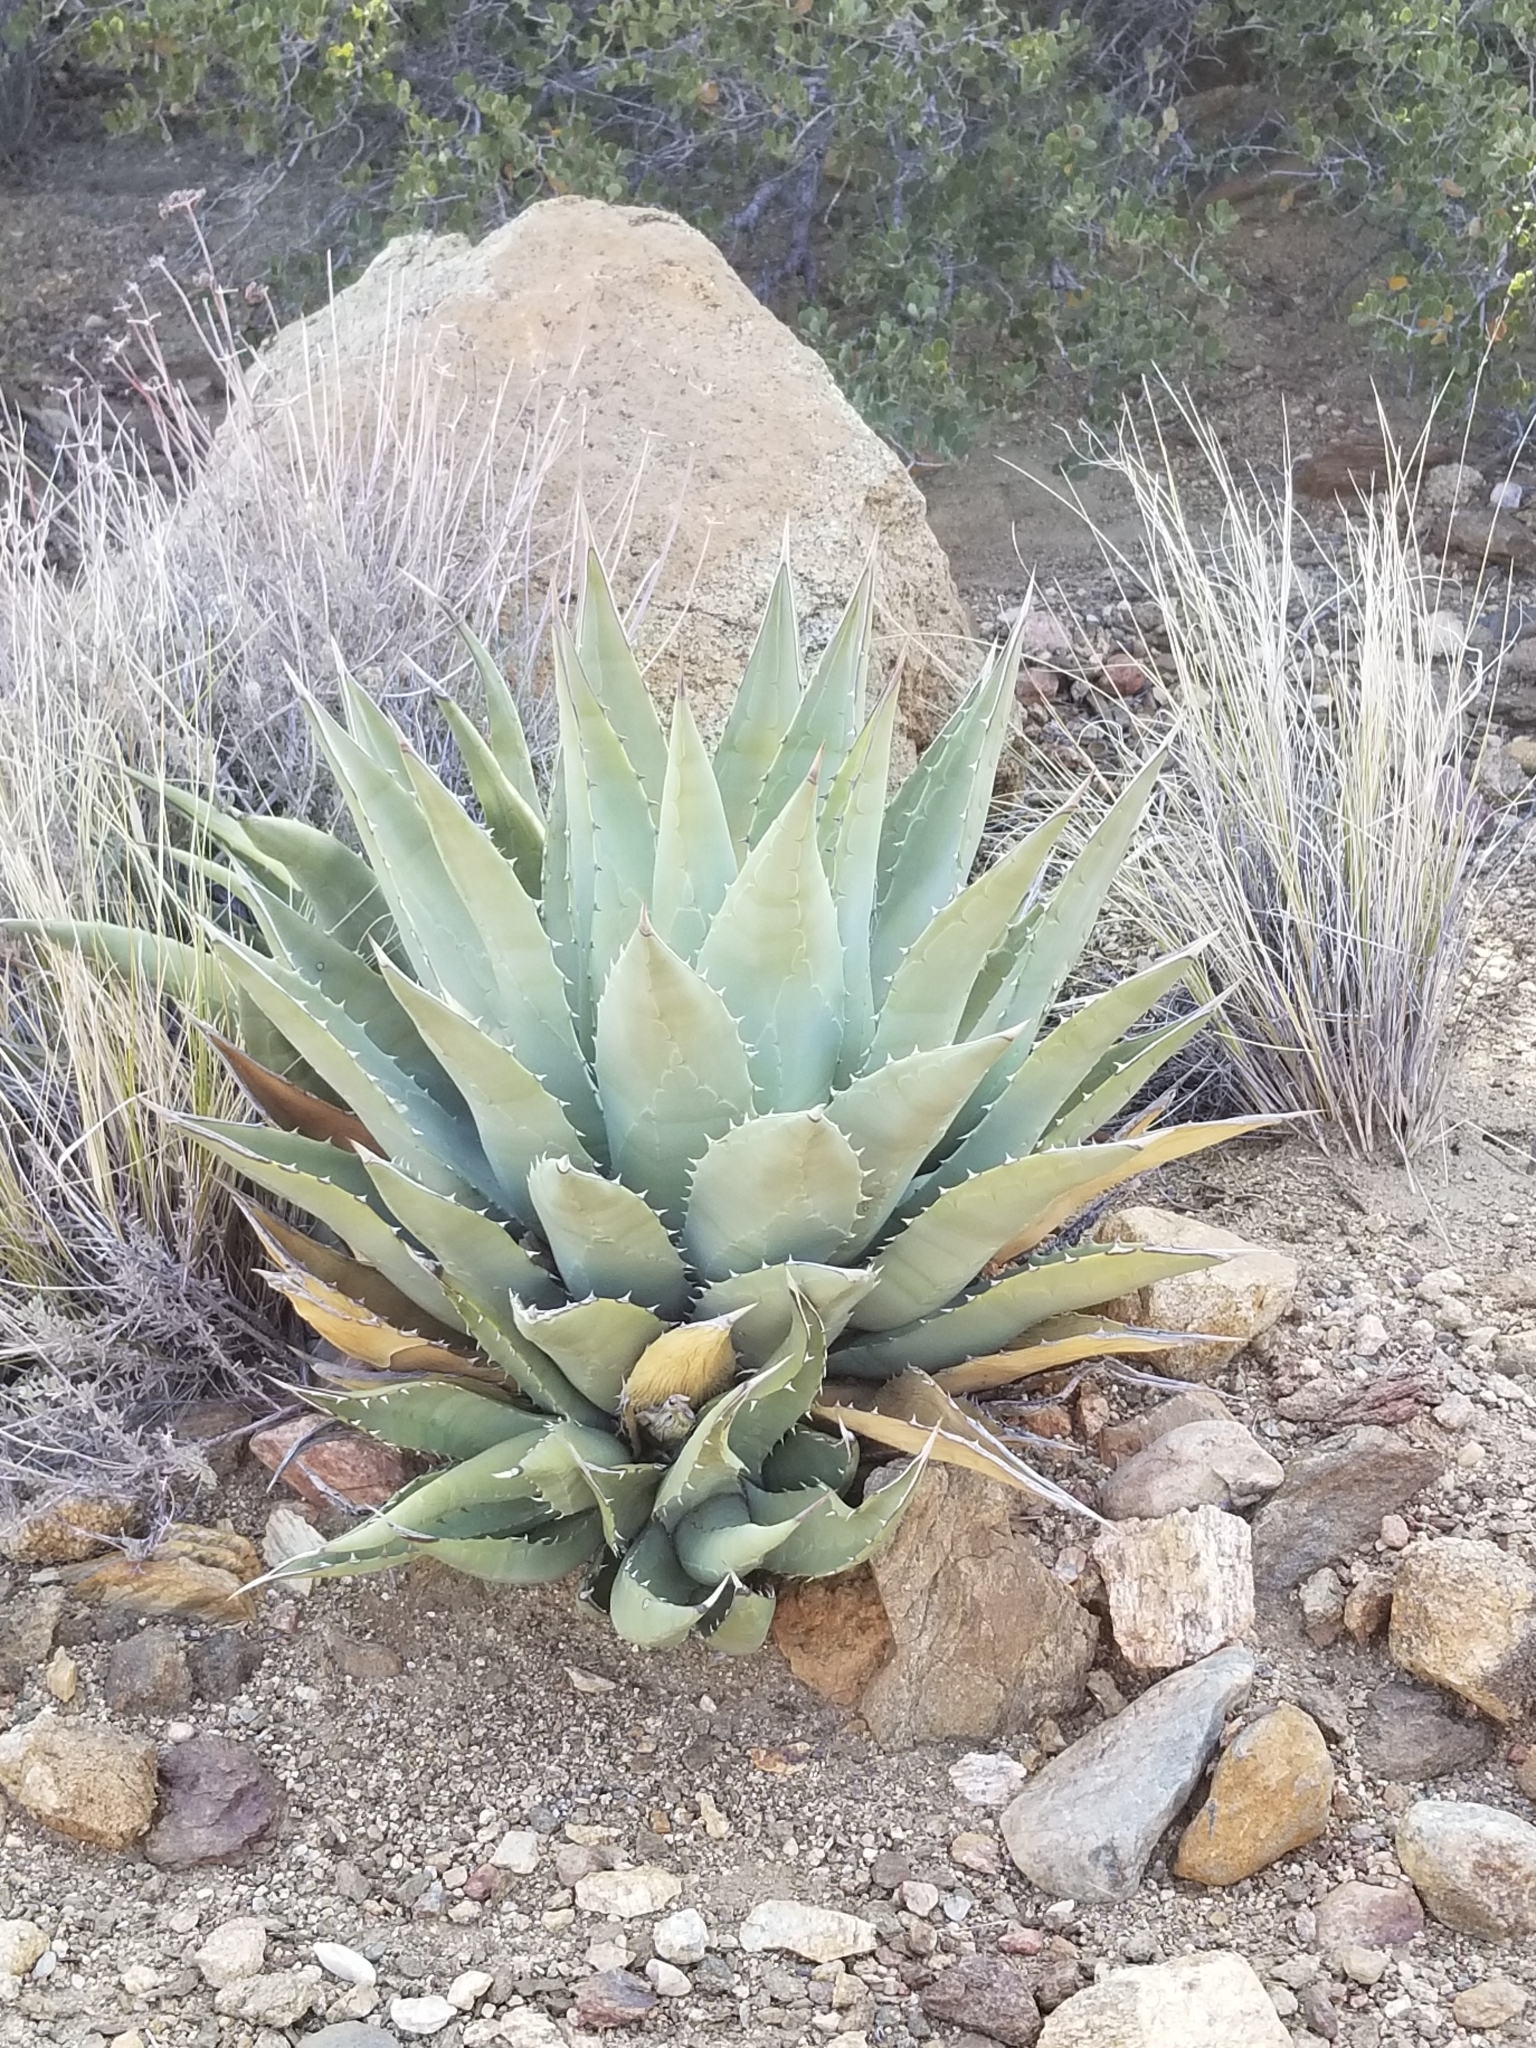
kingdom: Plantae
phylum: Tracheophyta
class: Liliopsida
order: Asparagales
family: Asparagaceae
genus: Agave
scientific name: Agave deserti
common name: Desert agave
